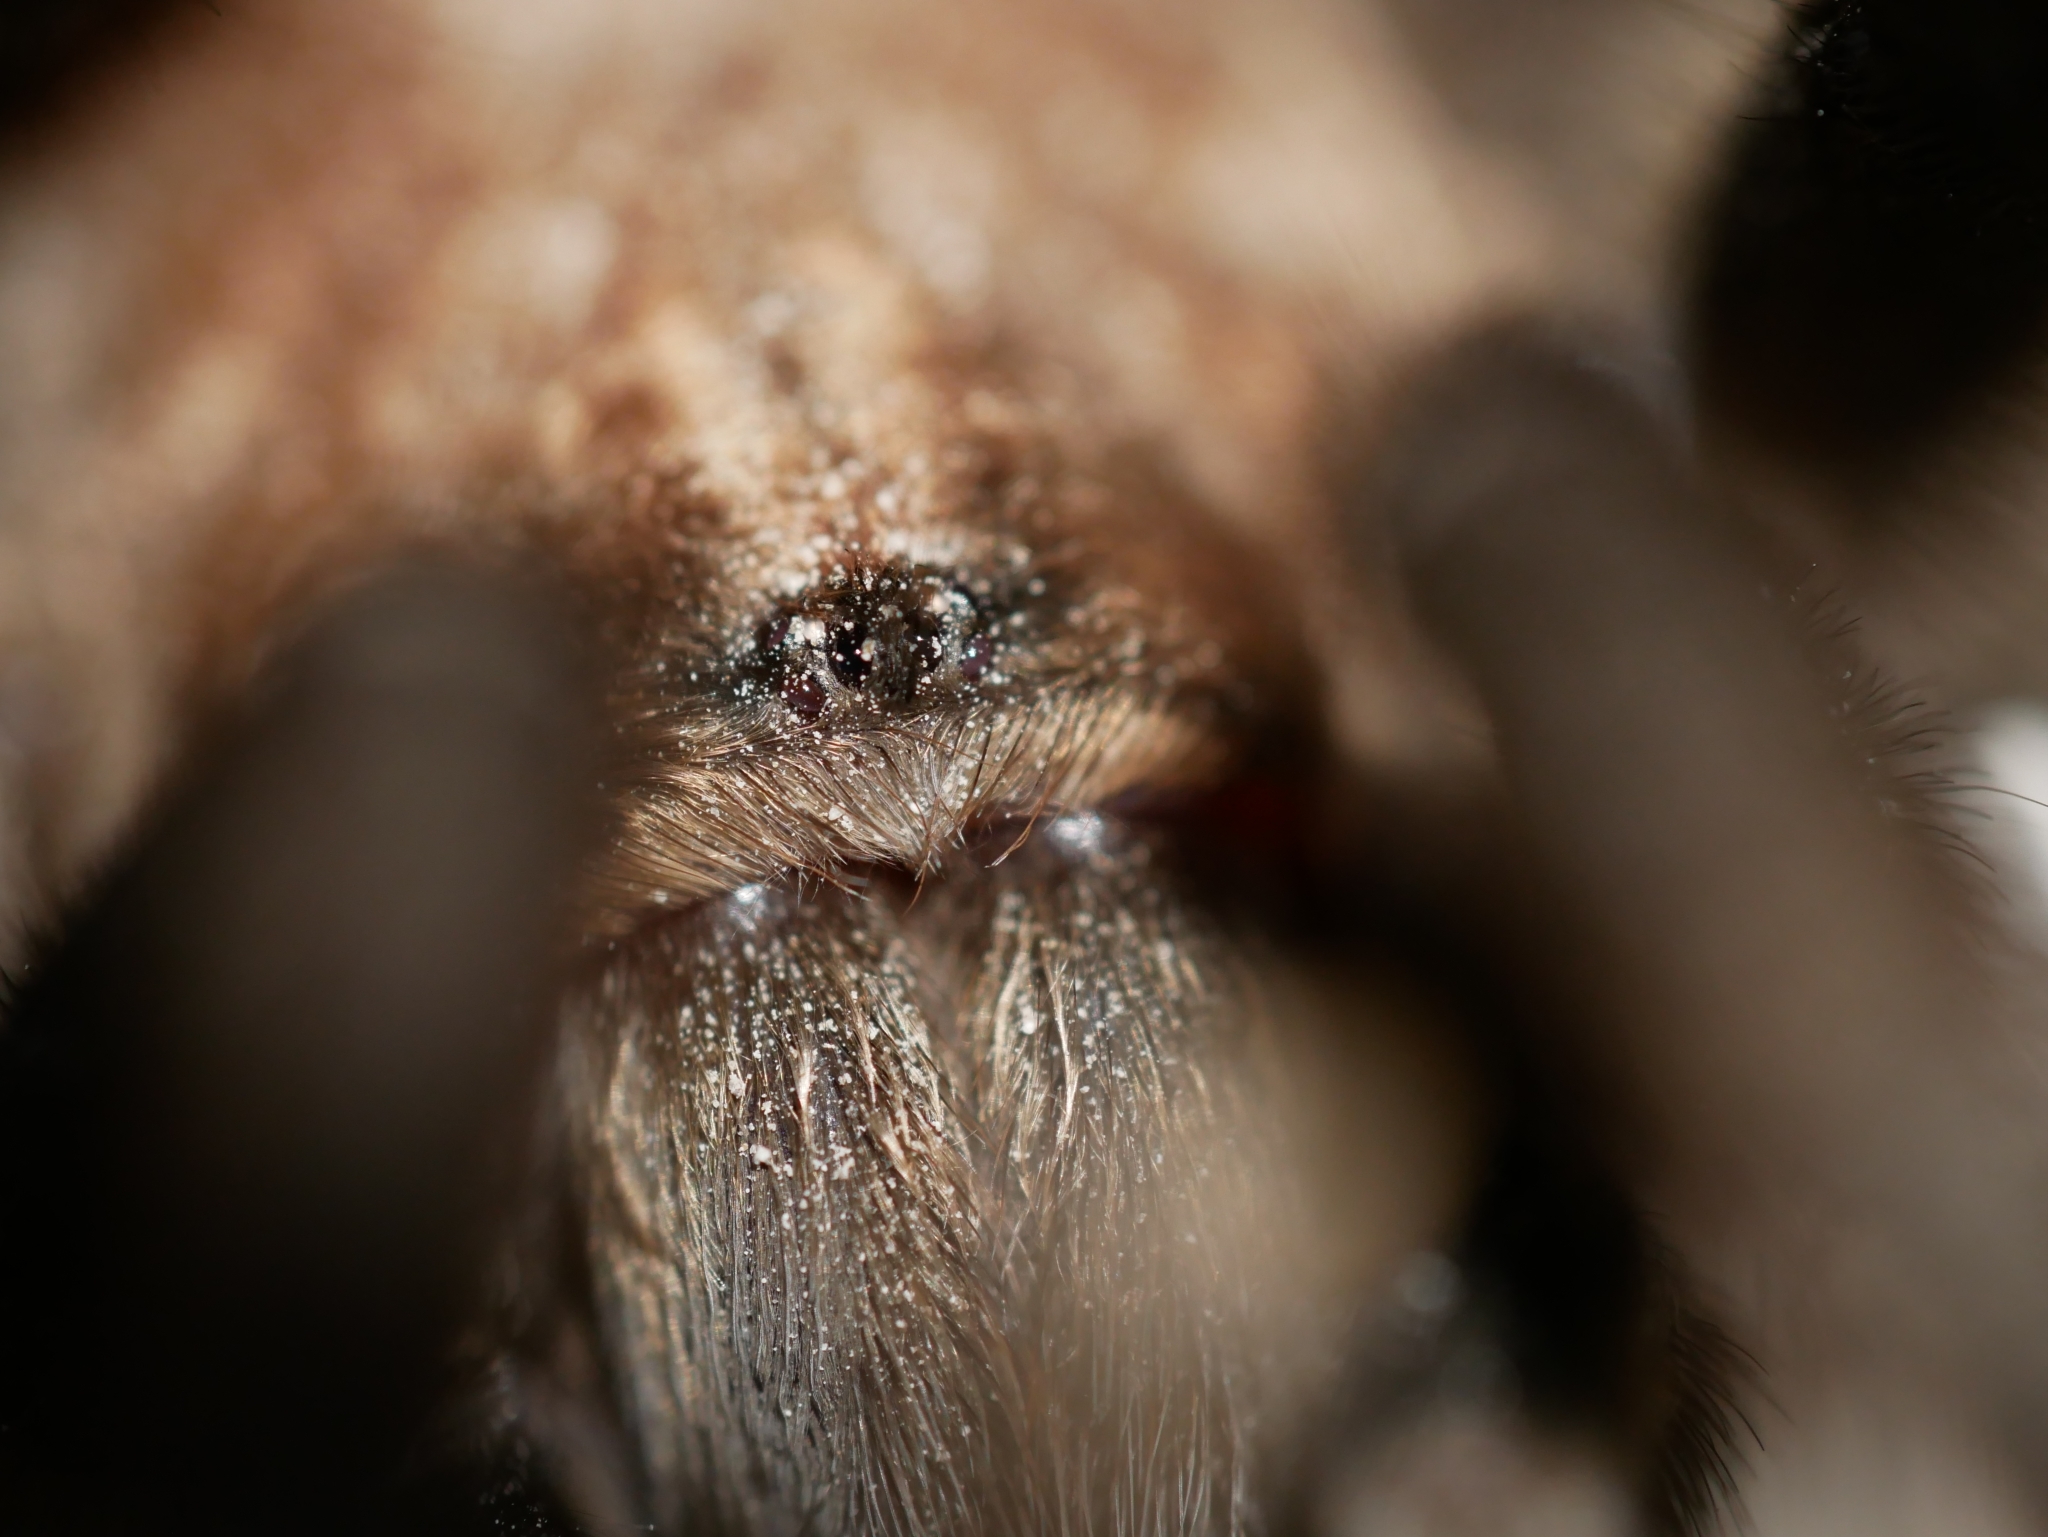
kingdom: Animalia
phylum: Arthropoda
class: Arachnida
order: Araneae
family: Theraphosidae
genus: Aphonopelma
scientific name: Aphonopelma iodius
